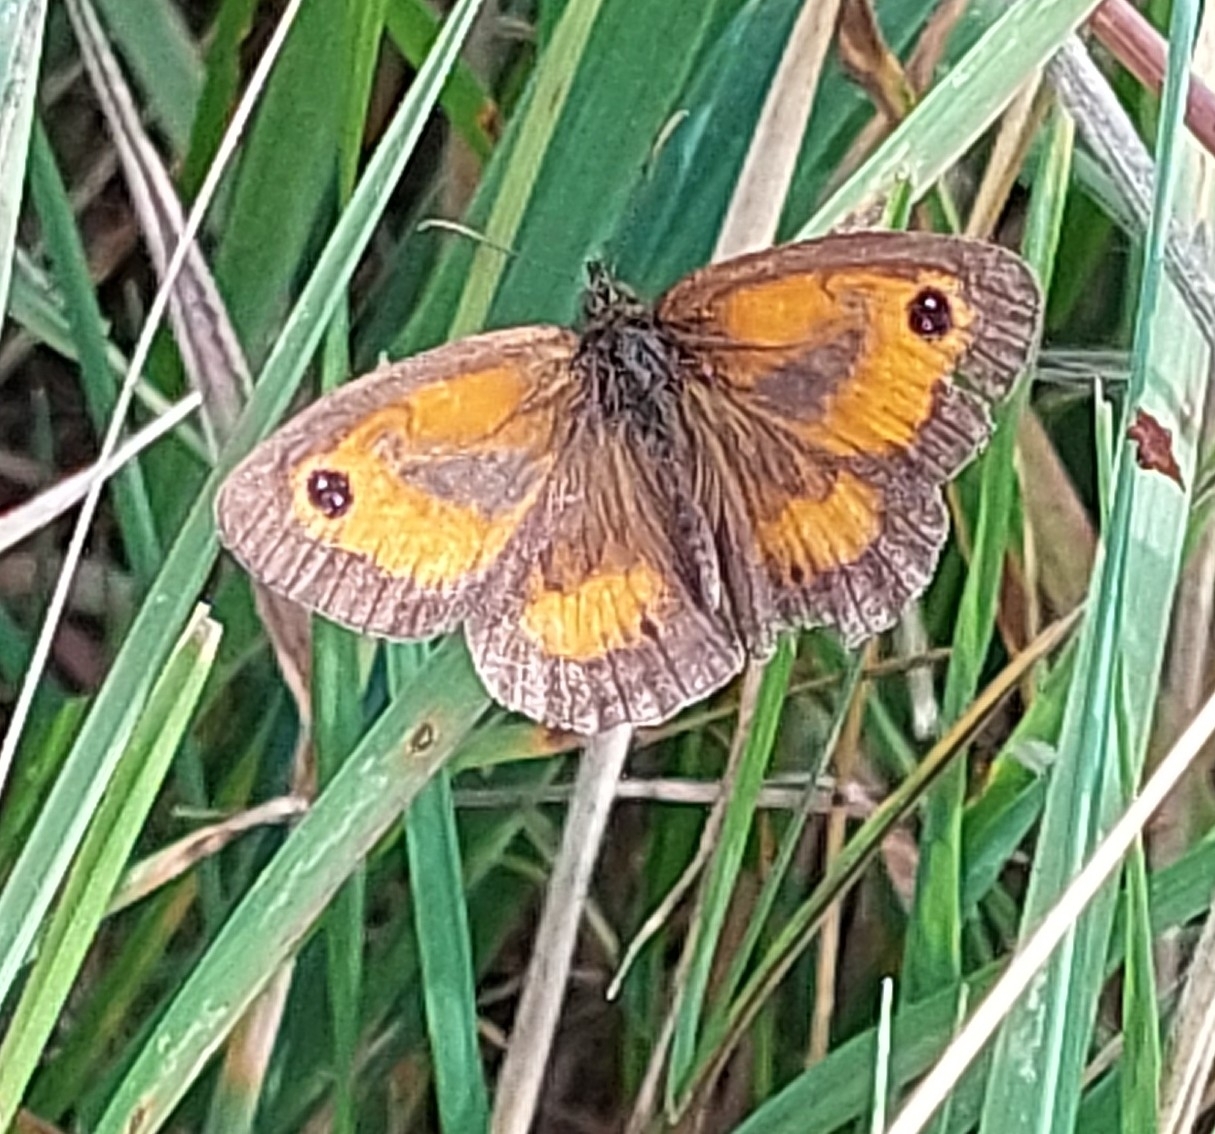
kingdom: Animalia
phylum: Arthropoda
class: Insecta
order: Lepidoptera
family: Nymphalidae
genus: Pyronia
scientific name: Pyronia tithonus
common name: Gatekeeper
